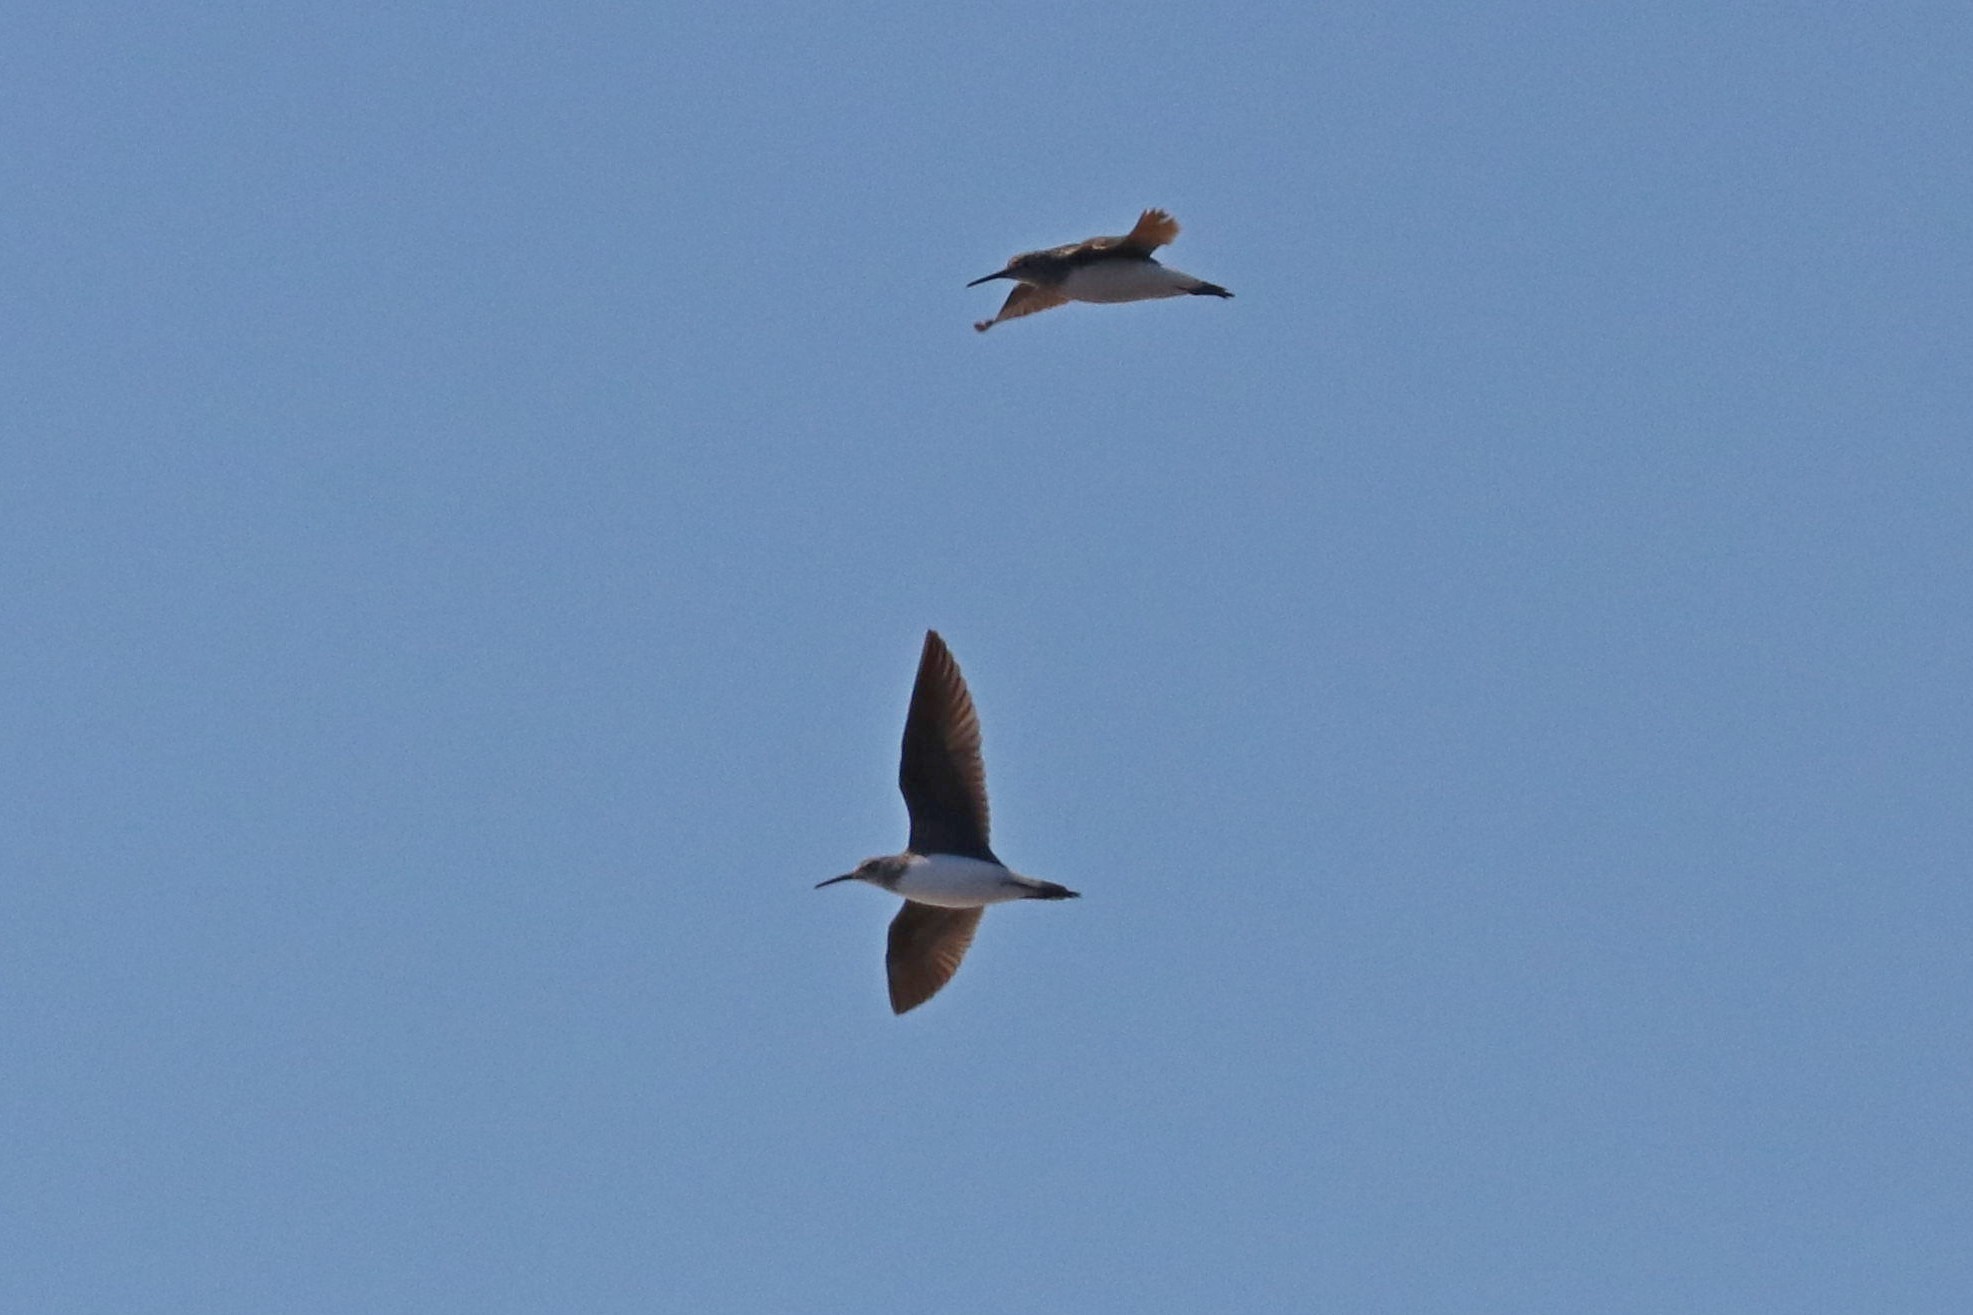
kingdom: Animalia
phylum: Chordata
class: Aves
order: Charadriiformes
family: Scolopacidae
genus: Tringa
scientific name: Tringa ochropus
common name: Green sandpiper
